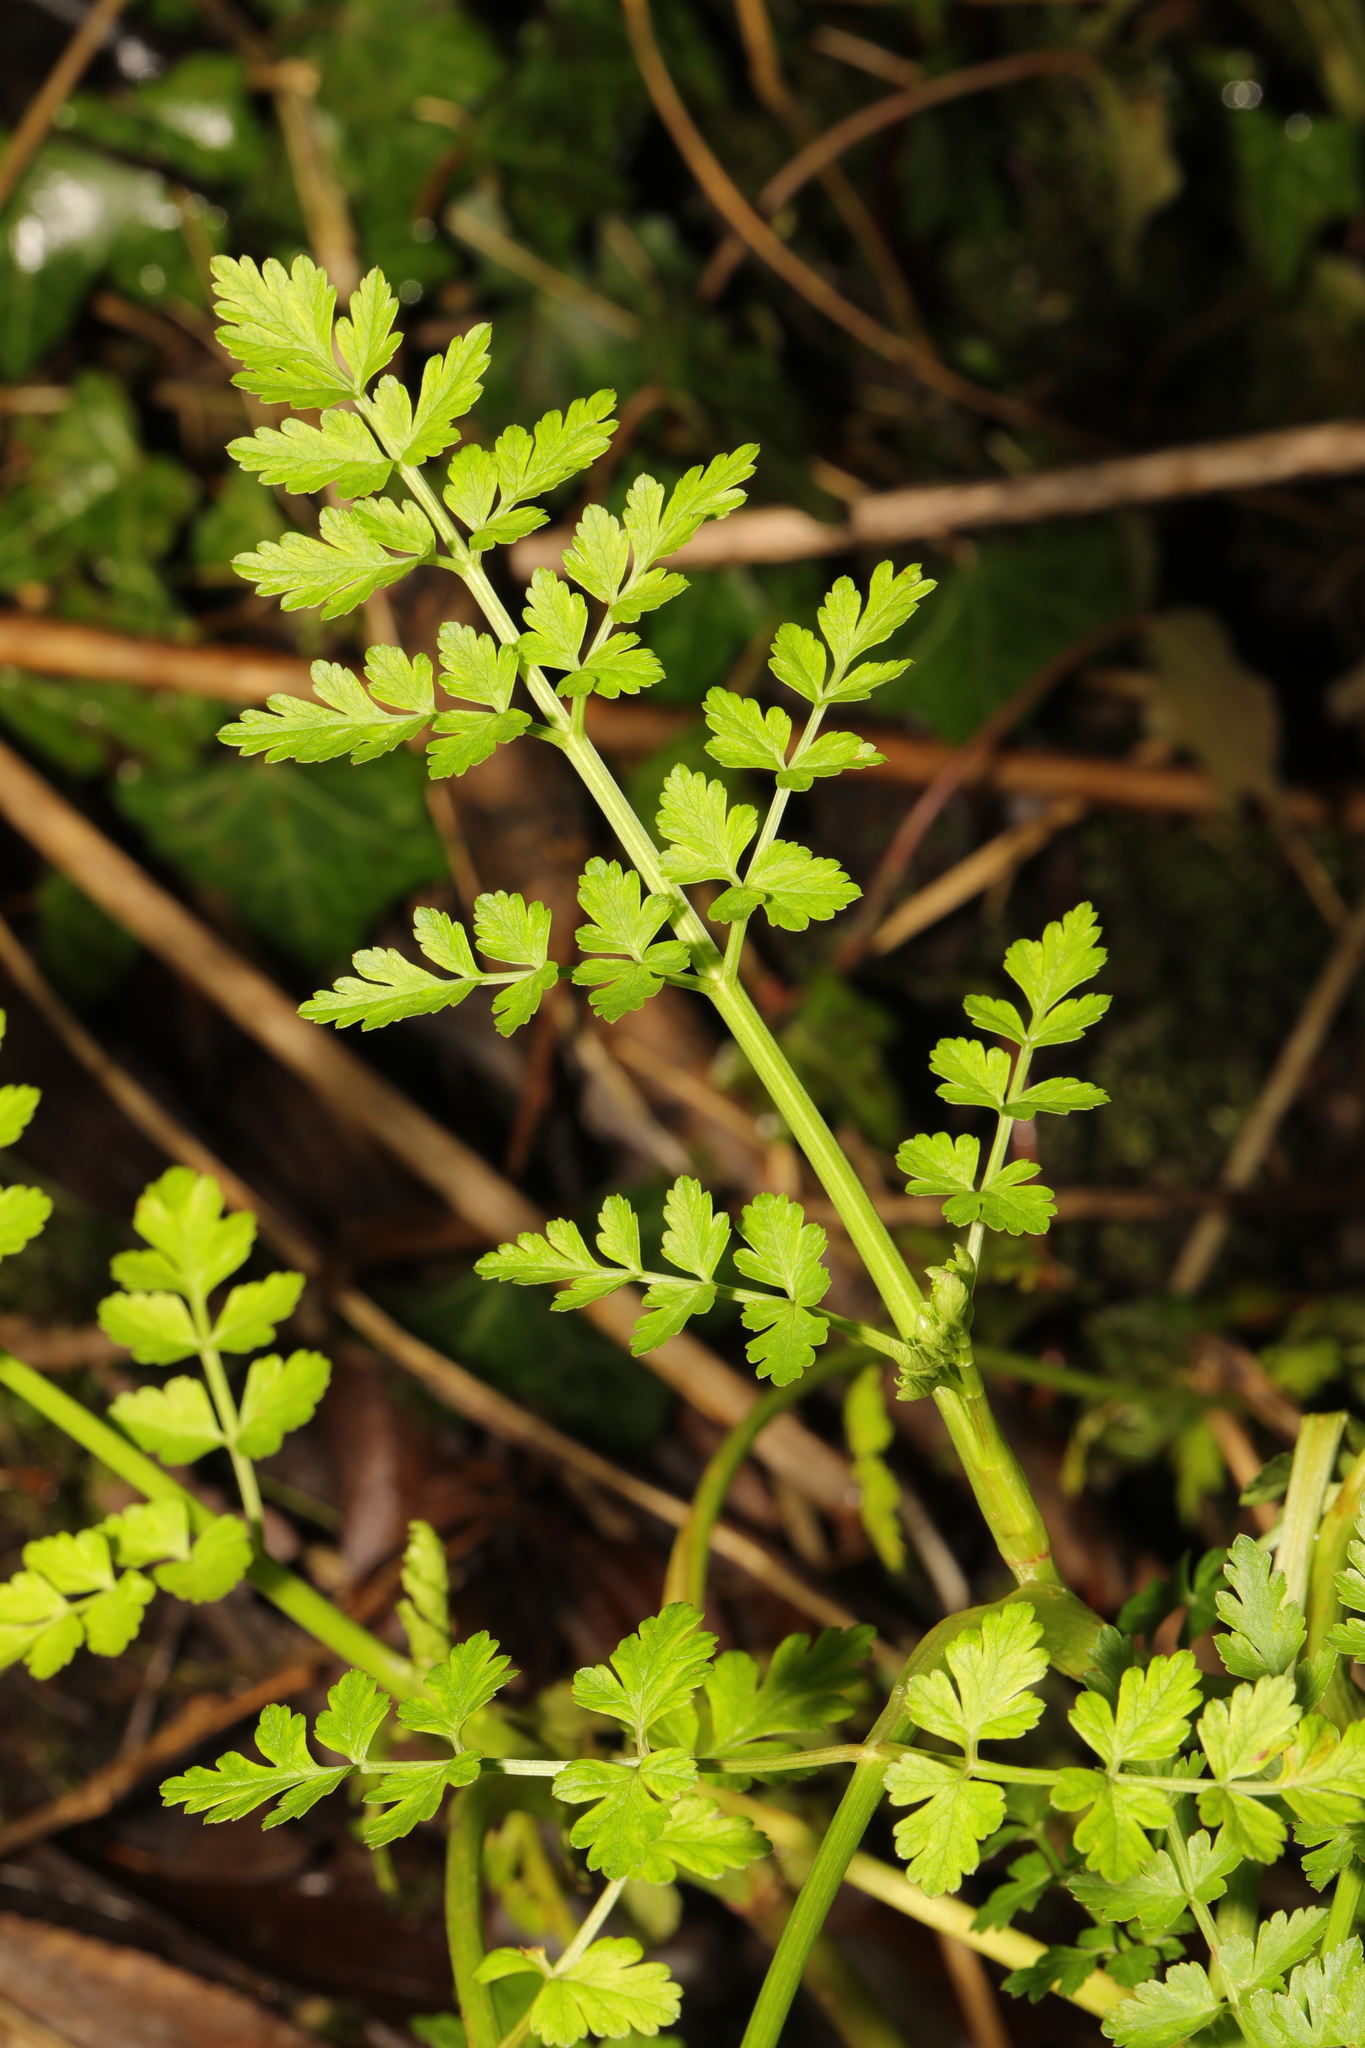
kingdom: Plantae
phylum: Tracheophyta
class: Magnoliopsida
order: Apiales
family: Apiaceae
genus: Oenanthe
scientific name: Oenanthe crocata
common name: Hemlock water-dropwort
